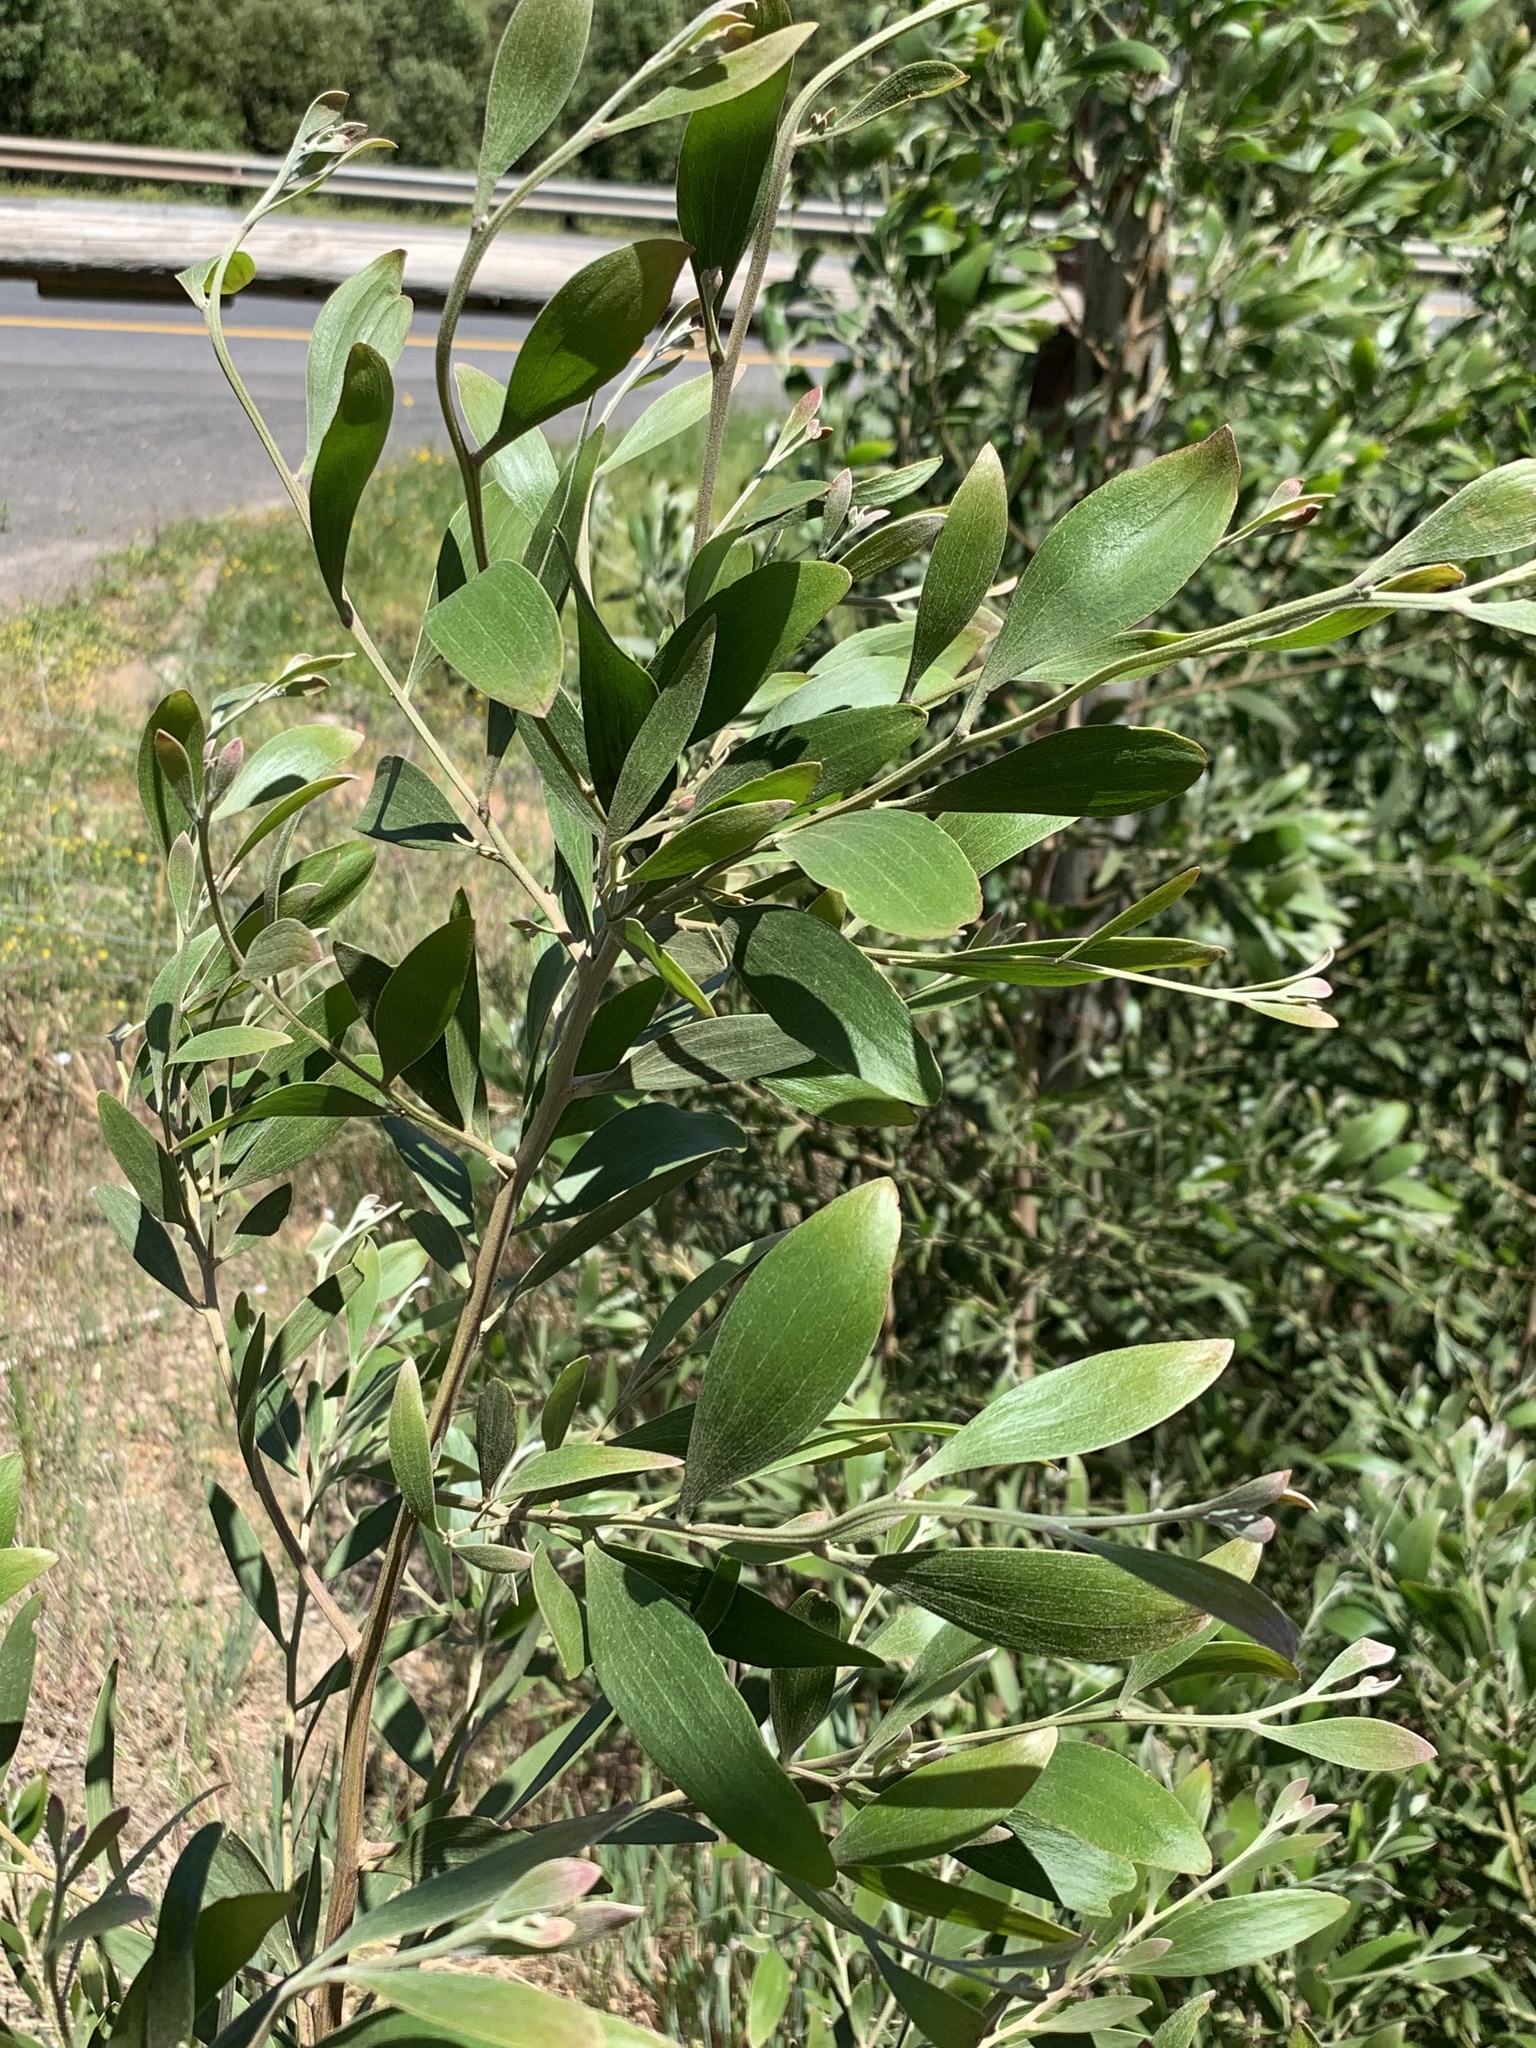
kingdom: Plantae
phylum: Tracheophyta
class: Magnoliopsida
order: Fabales
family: Fabaceae
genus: Acacia
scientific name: Acacia melanoxylon
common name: Blackwood
